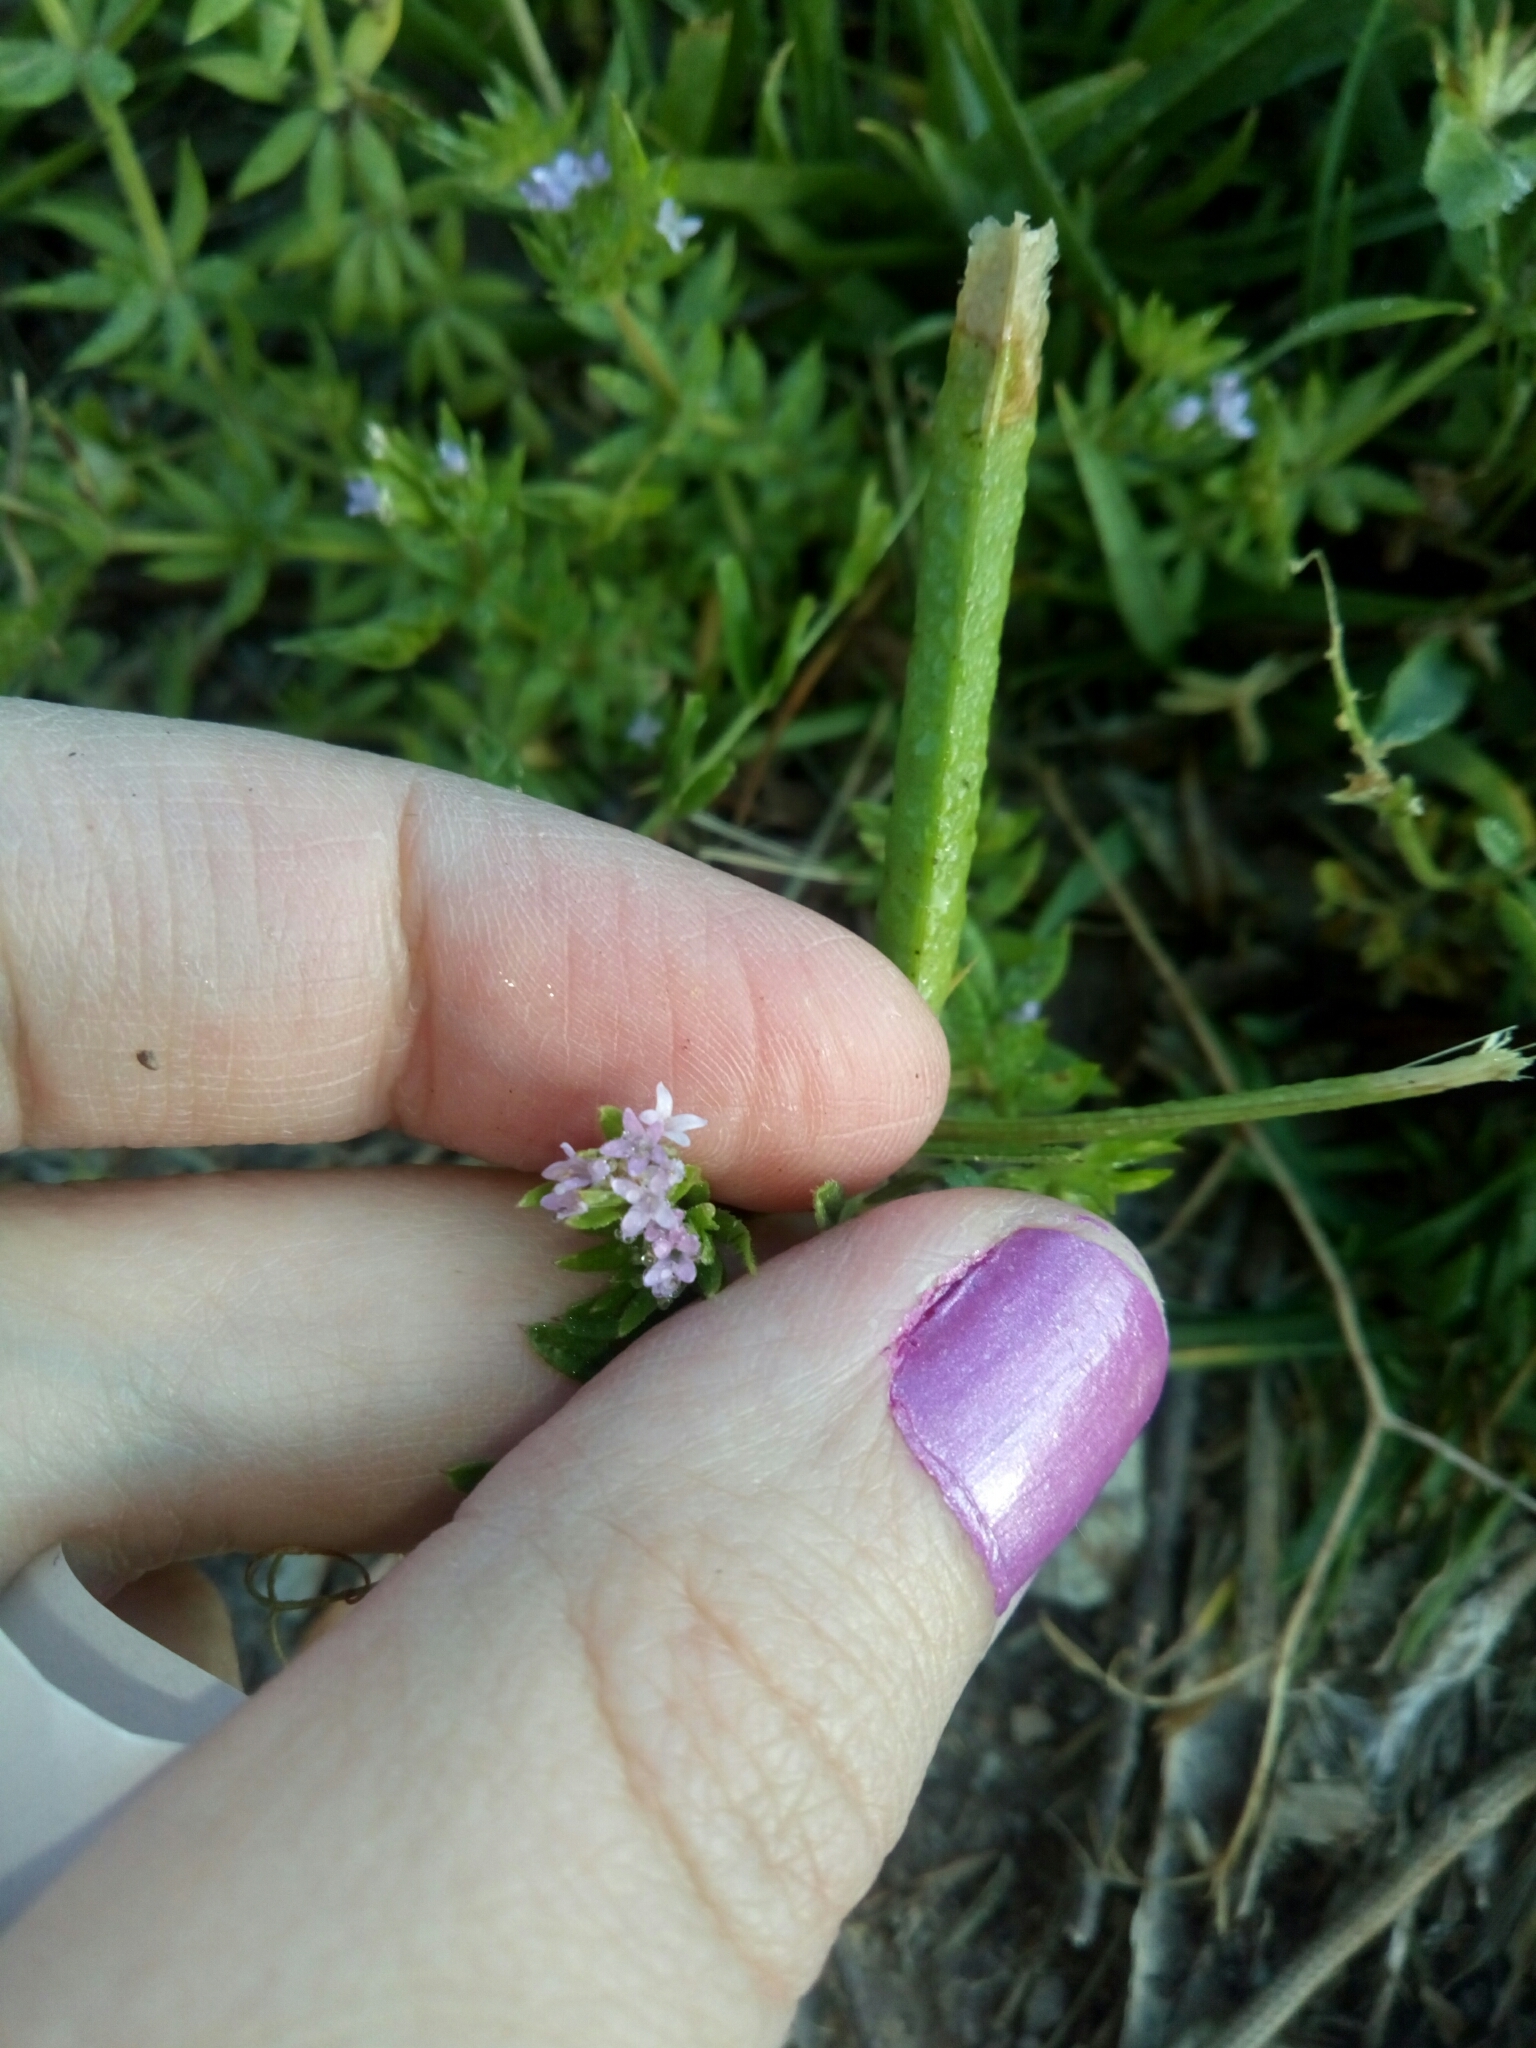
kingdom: Plantae
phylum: Tracheophyta
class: Magnoliopsida
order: Gentianales
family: Rubiaceae
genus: Sherardia
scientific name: Sherardia arvensis
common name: Field madder
